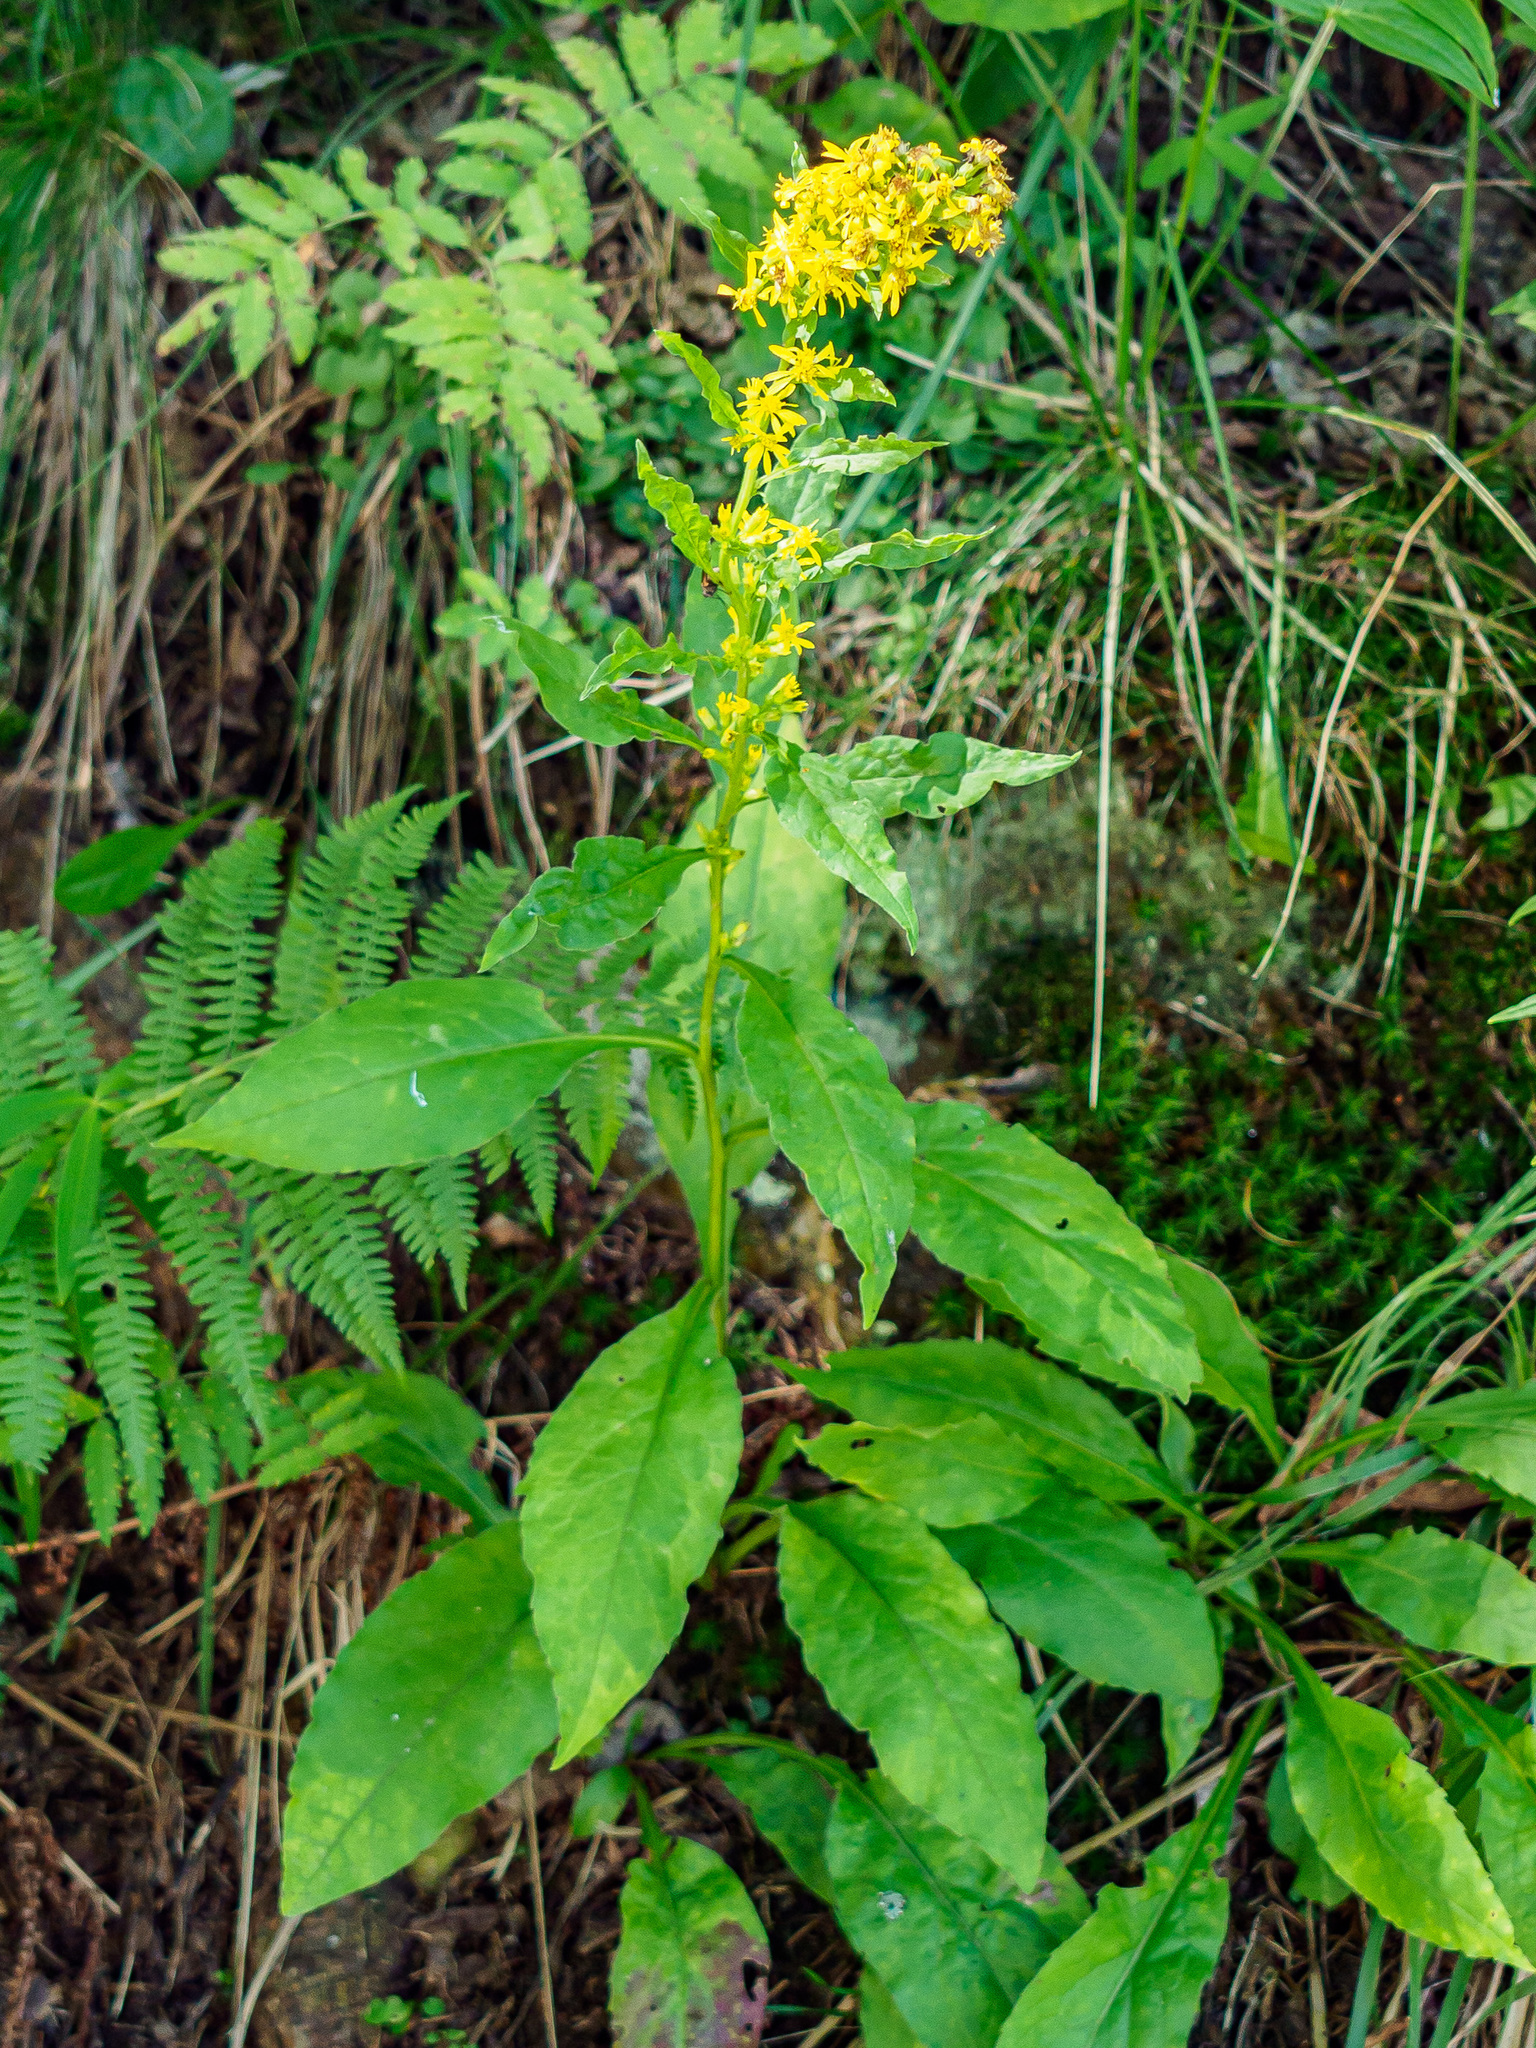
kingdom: Plantae
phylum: Tracheophyta
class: Magnoliopsida
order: Asterales
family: Asteraceae
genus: Solidago
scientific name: Solidago virgaurea
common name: Goldenrod
